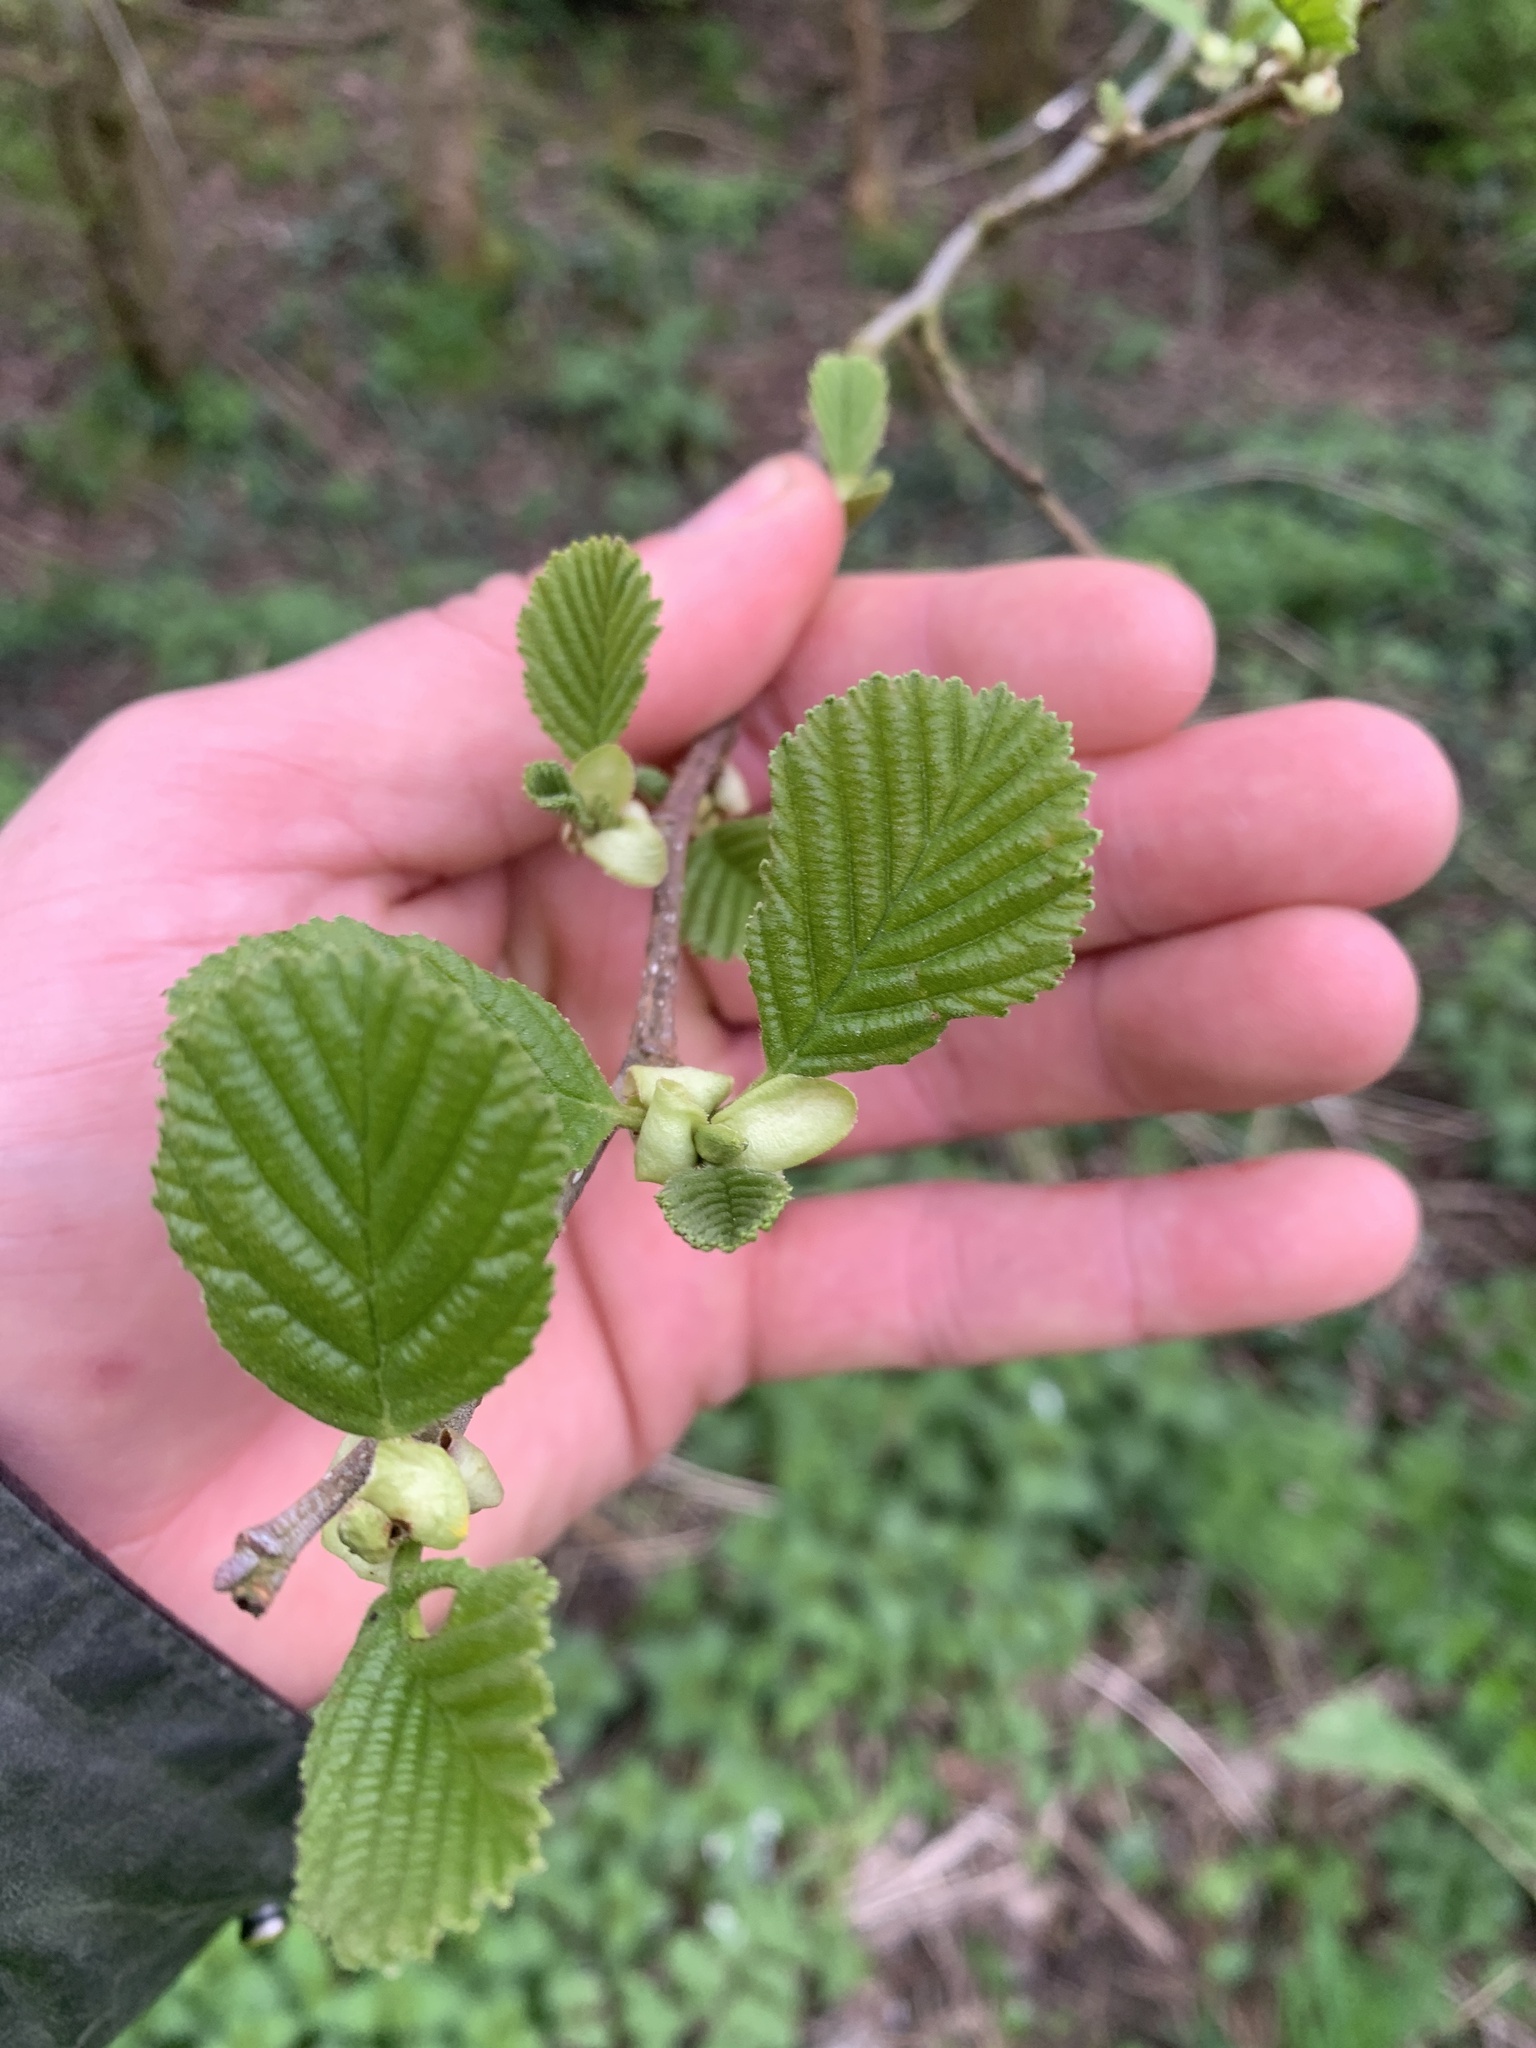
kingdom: Plantae
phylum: Tracheophyta
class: Magnoliopsida
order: Fagales
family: Betulaceae
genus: Corylus
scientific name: Corylus avellana
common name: European hazel
